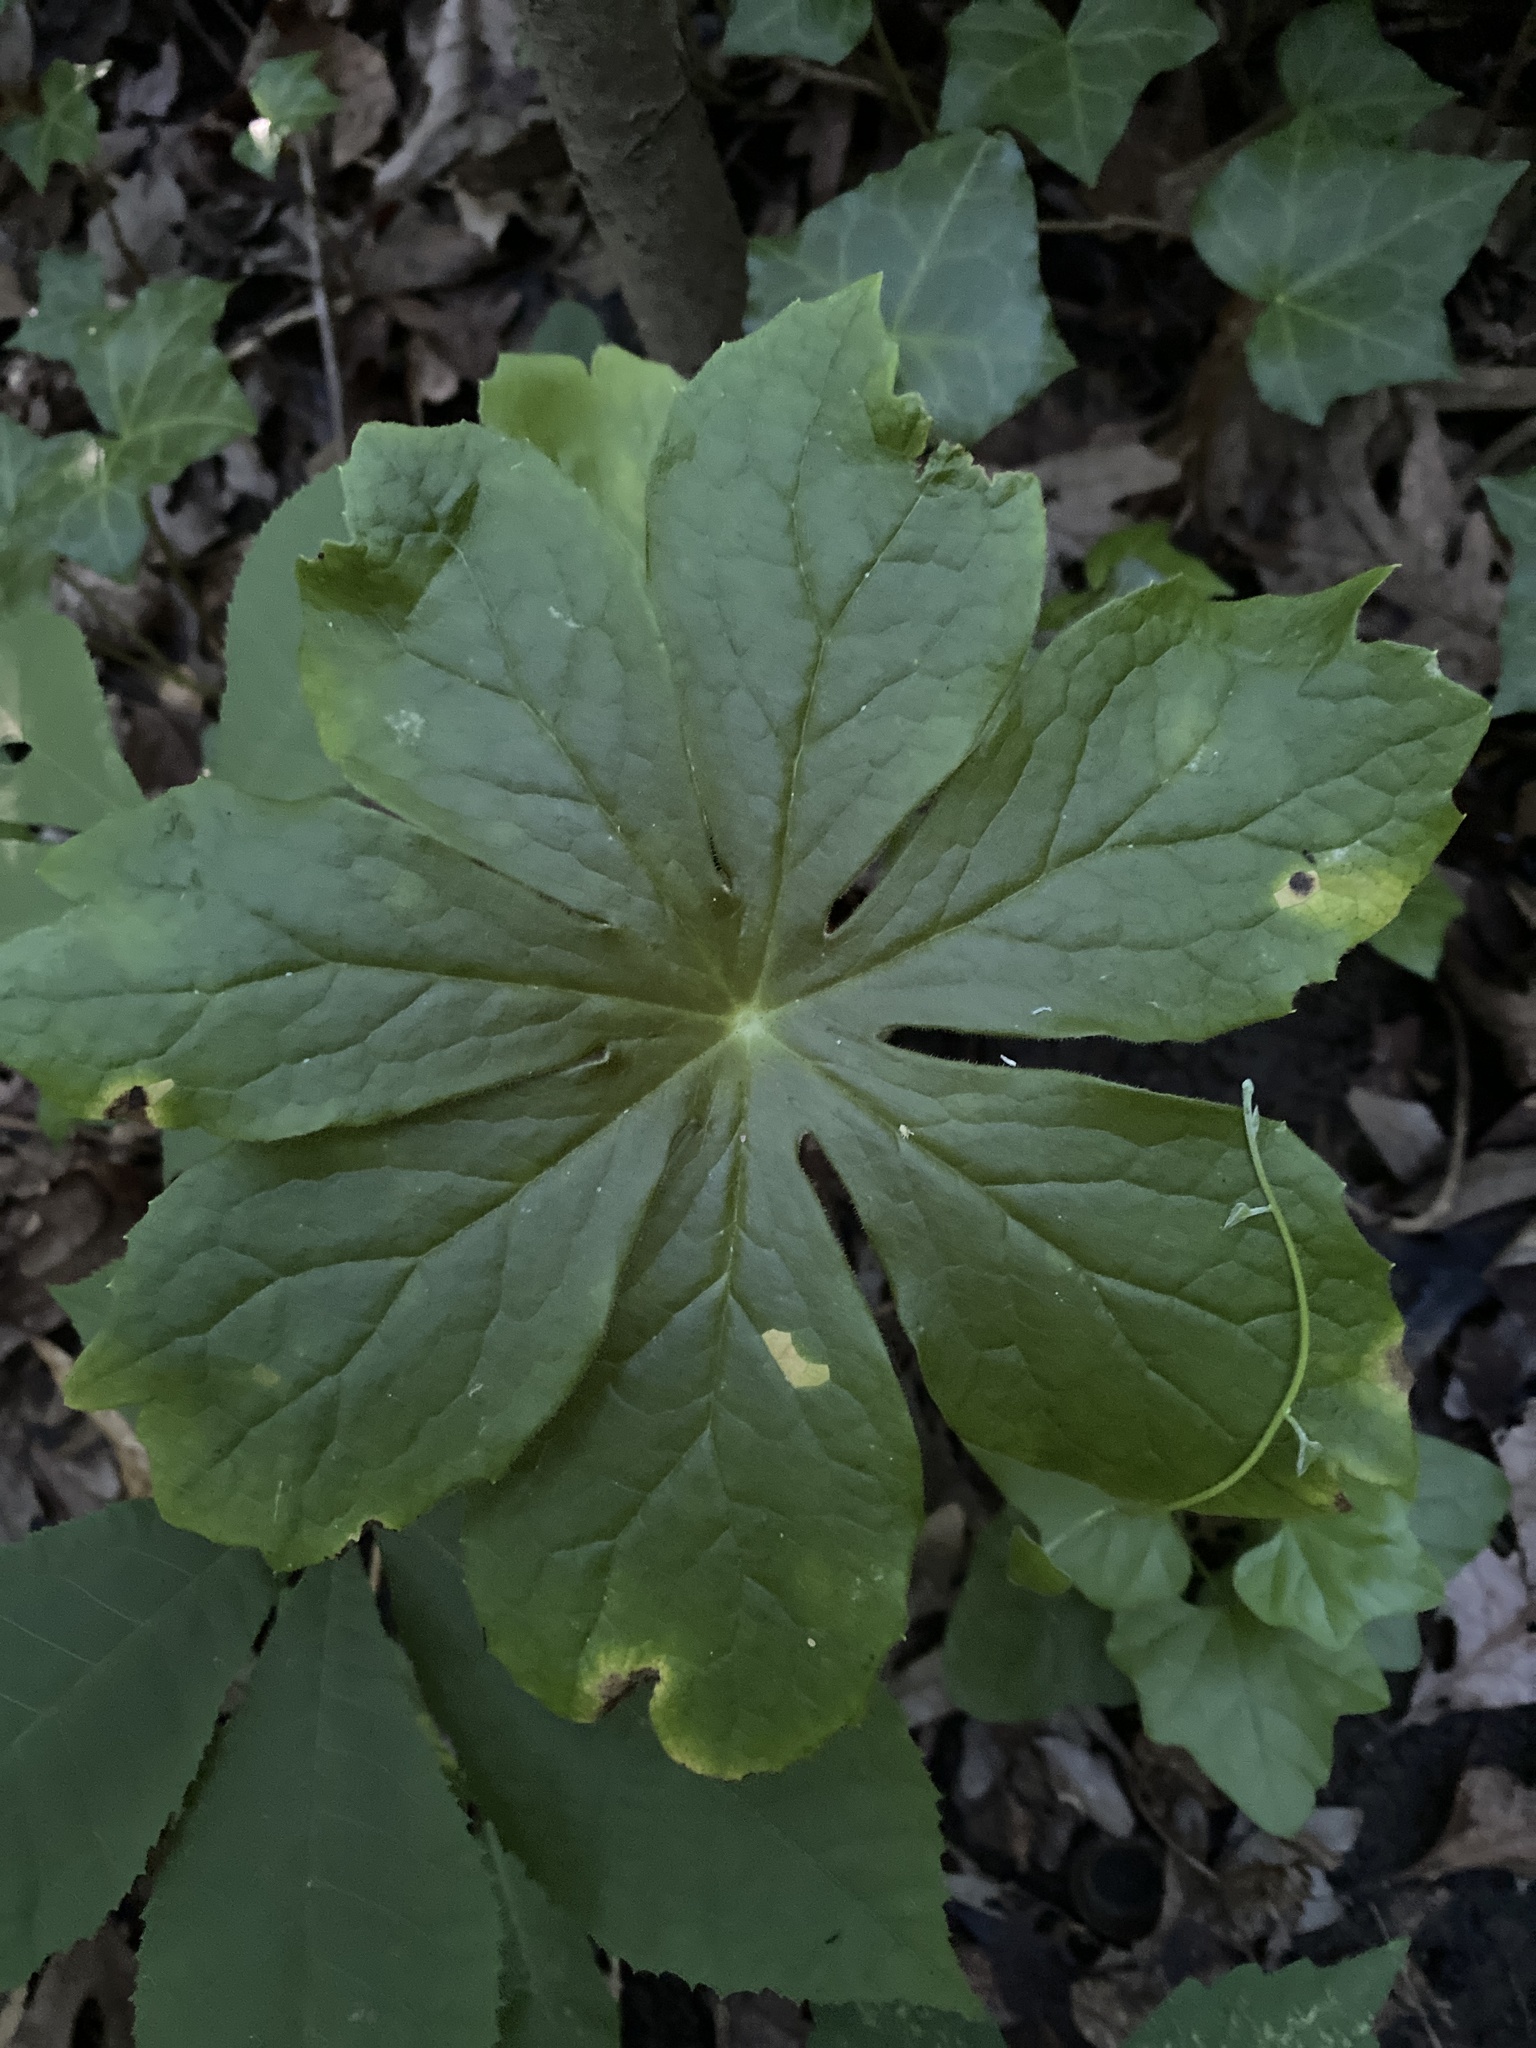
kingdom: Plantae
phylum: Tracheophyta
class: Magnoliopsida
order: Ranunculales
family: Berberidaceae
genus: Podophyllum
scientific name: Podophyllum peltatum
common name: Wild mandrake
